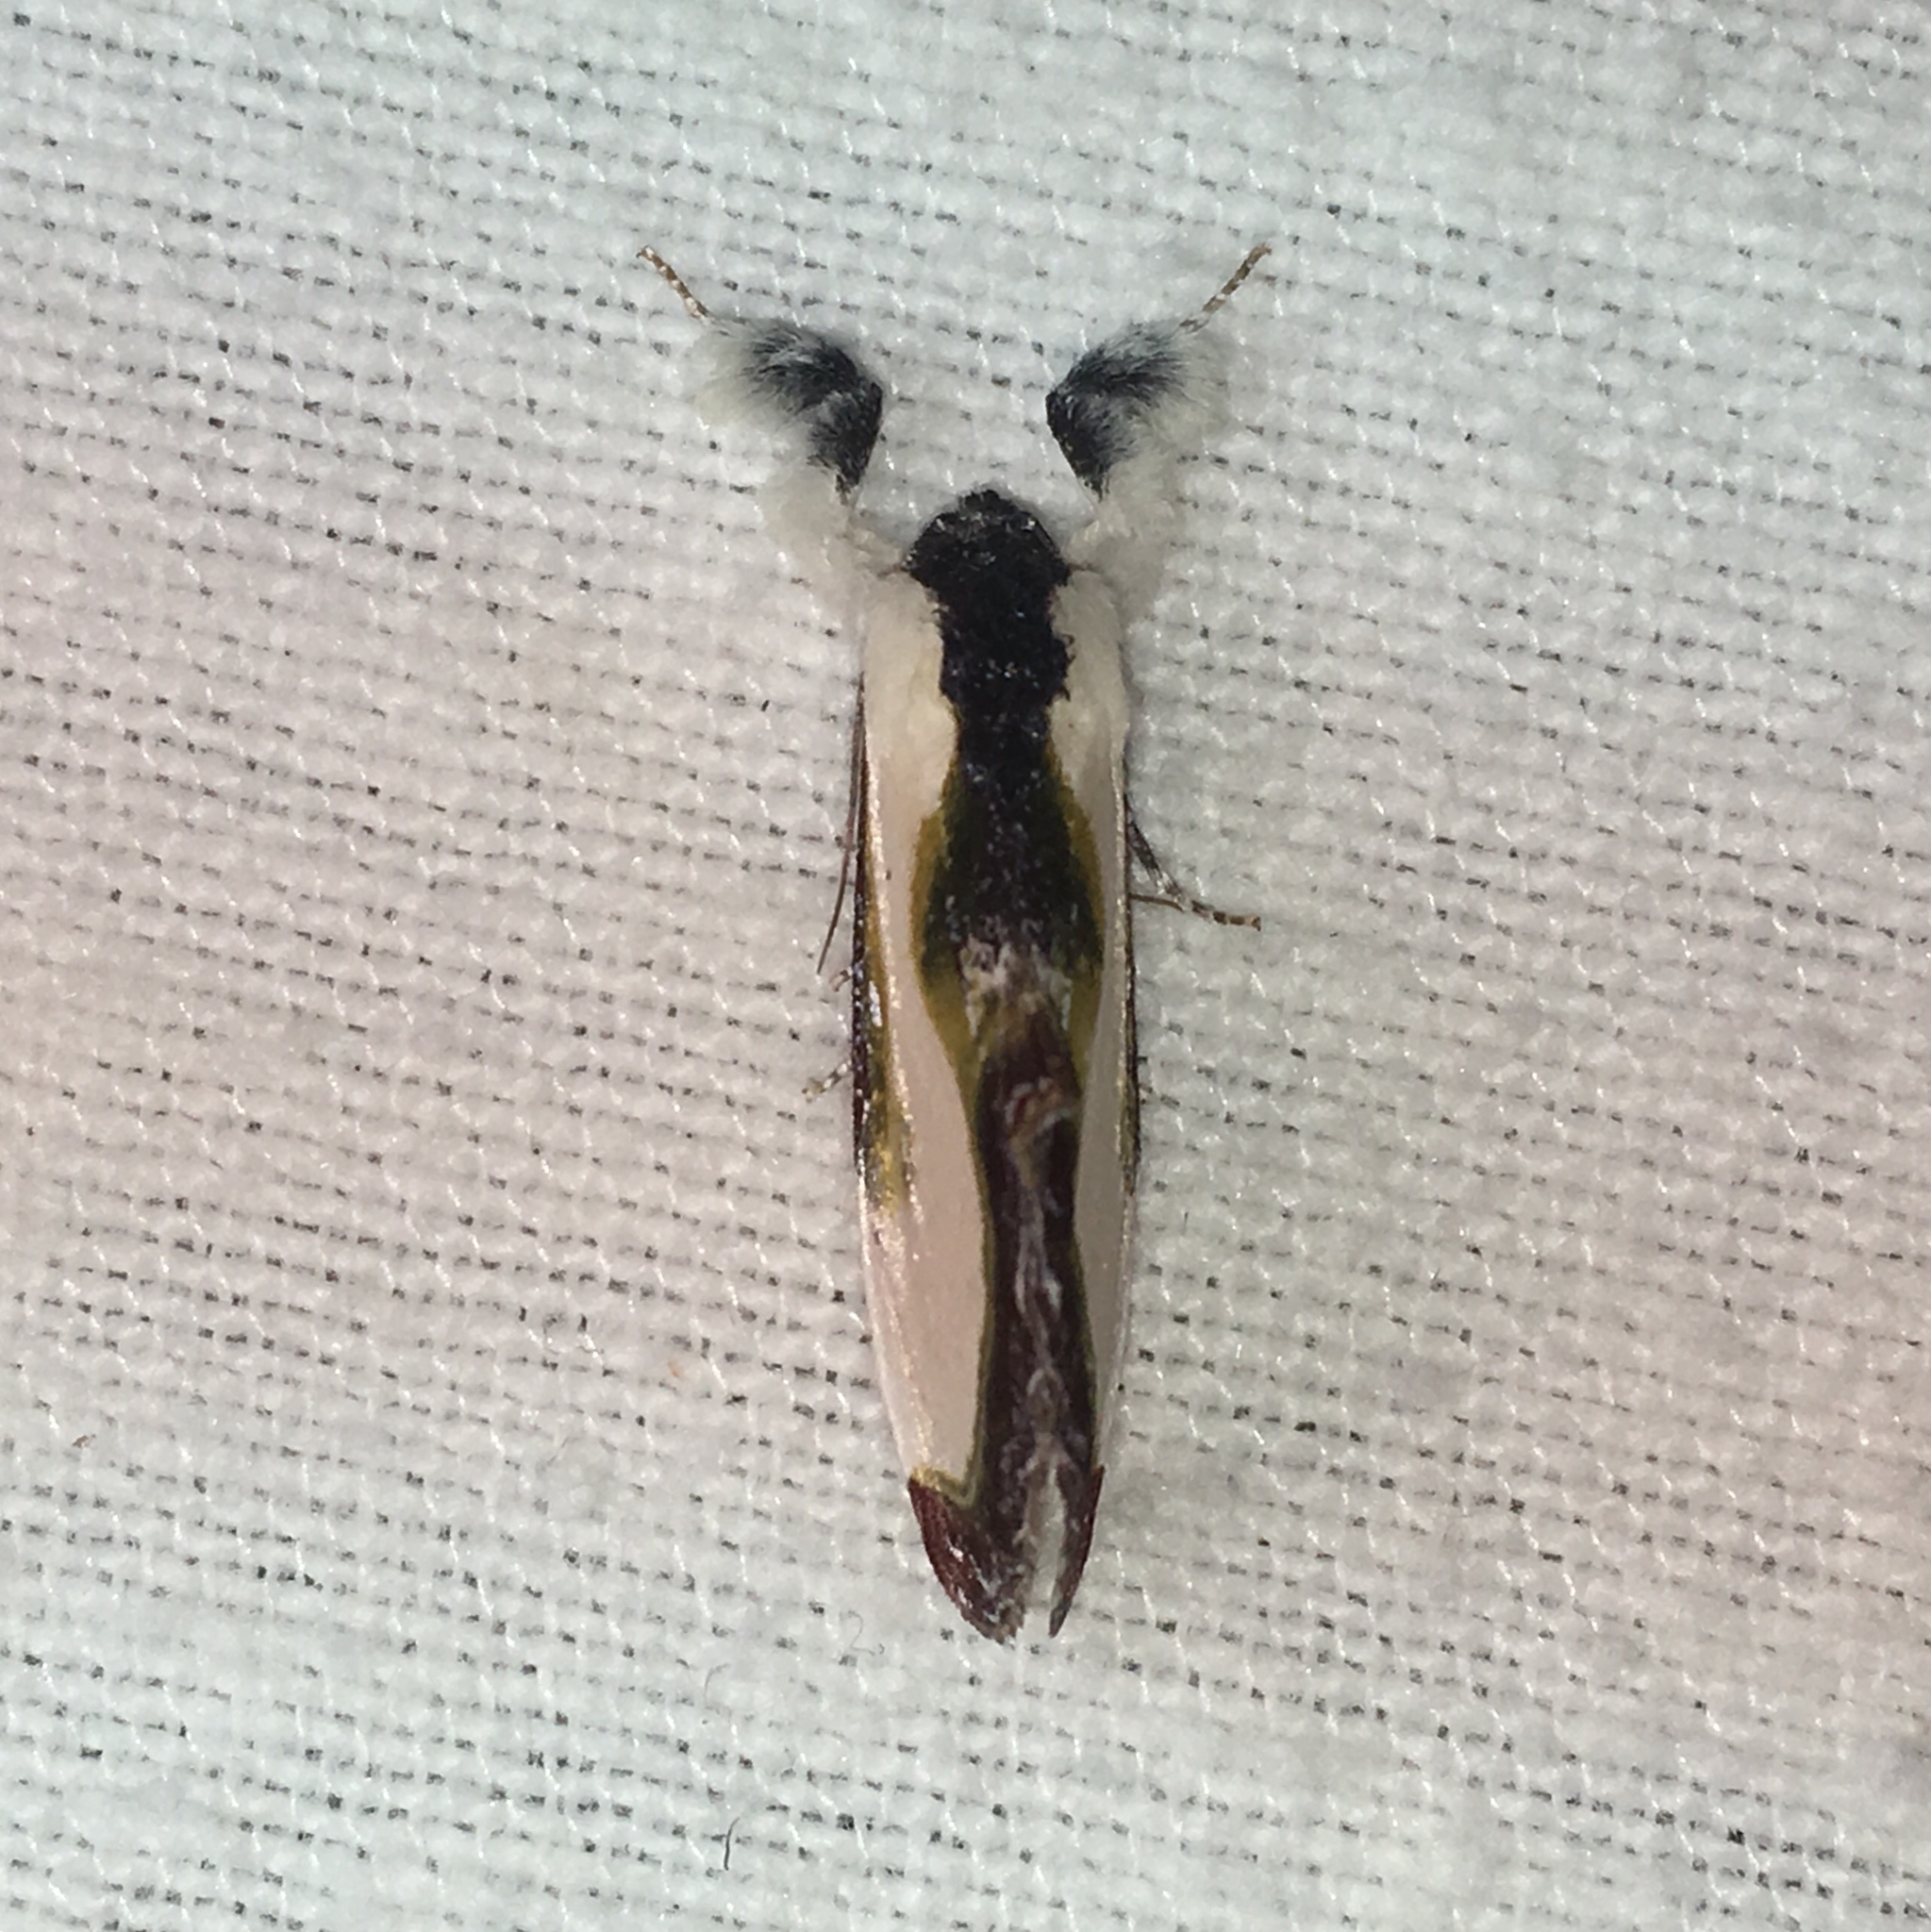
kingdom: Animalia
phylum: Arthropoda
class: Insecta
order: Lepidoptera
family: Noctuidae
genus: Eudryas
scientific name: Eudryas grata
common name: Beautiful wood-nymph
